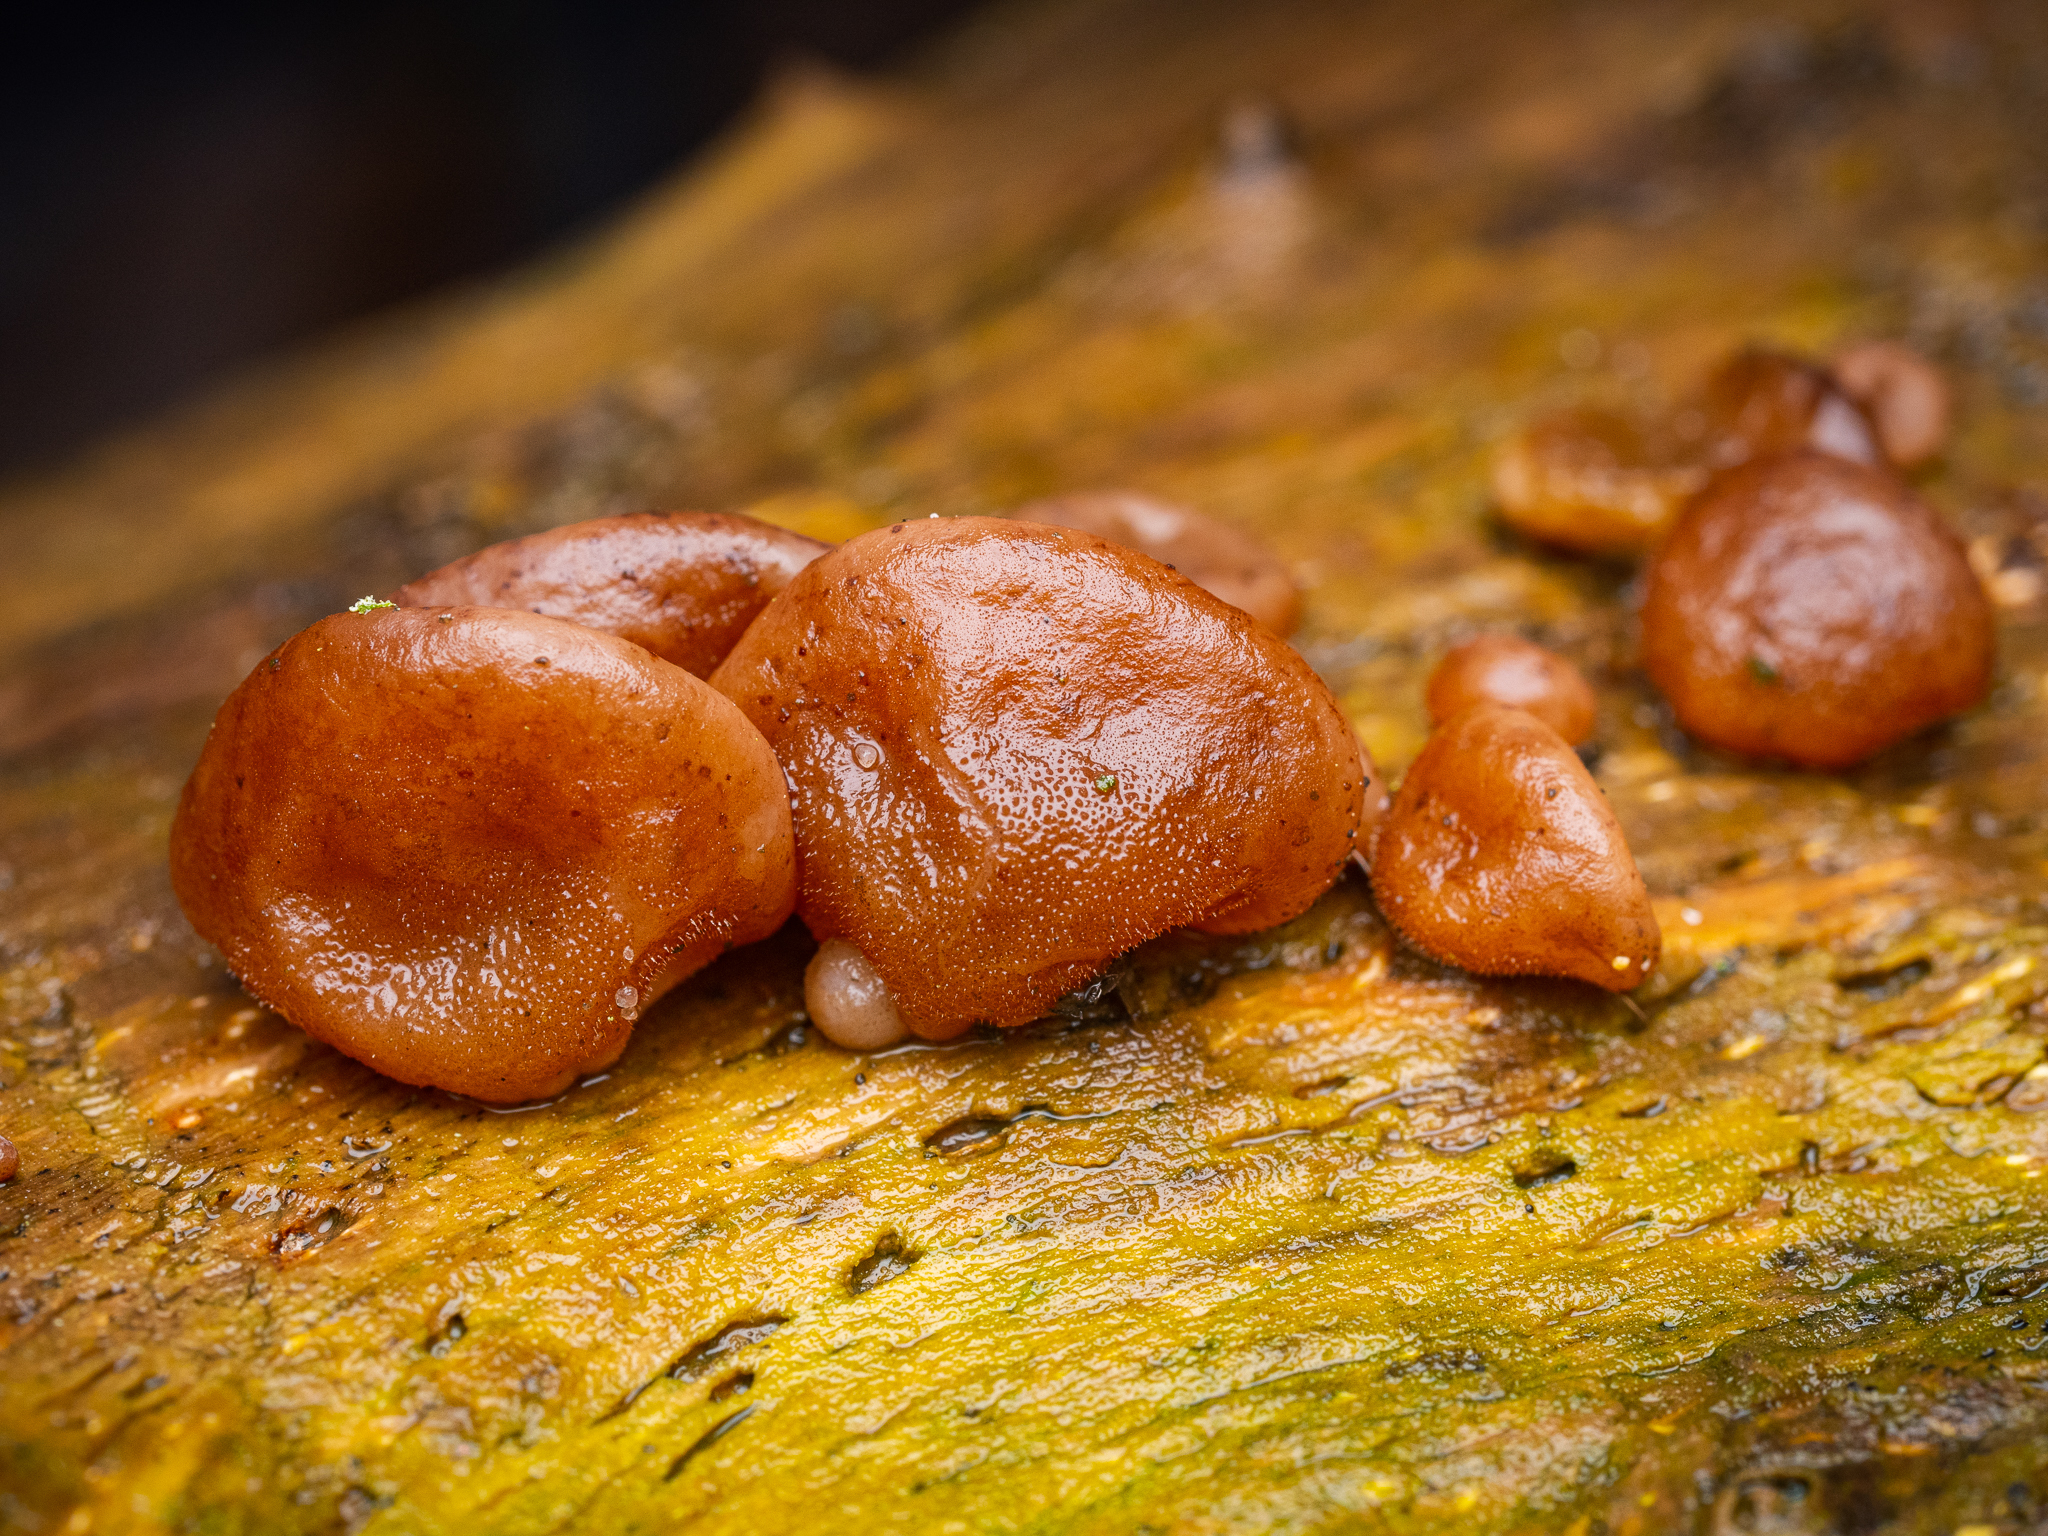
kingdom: Fungi
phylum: Basidiomycota
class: Agaricomycetes
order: Auriculariales
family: Auriculariaceae
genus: Auricularia
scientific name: Auricularia auricula-judae
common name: Jelly ear
